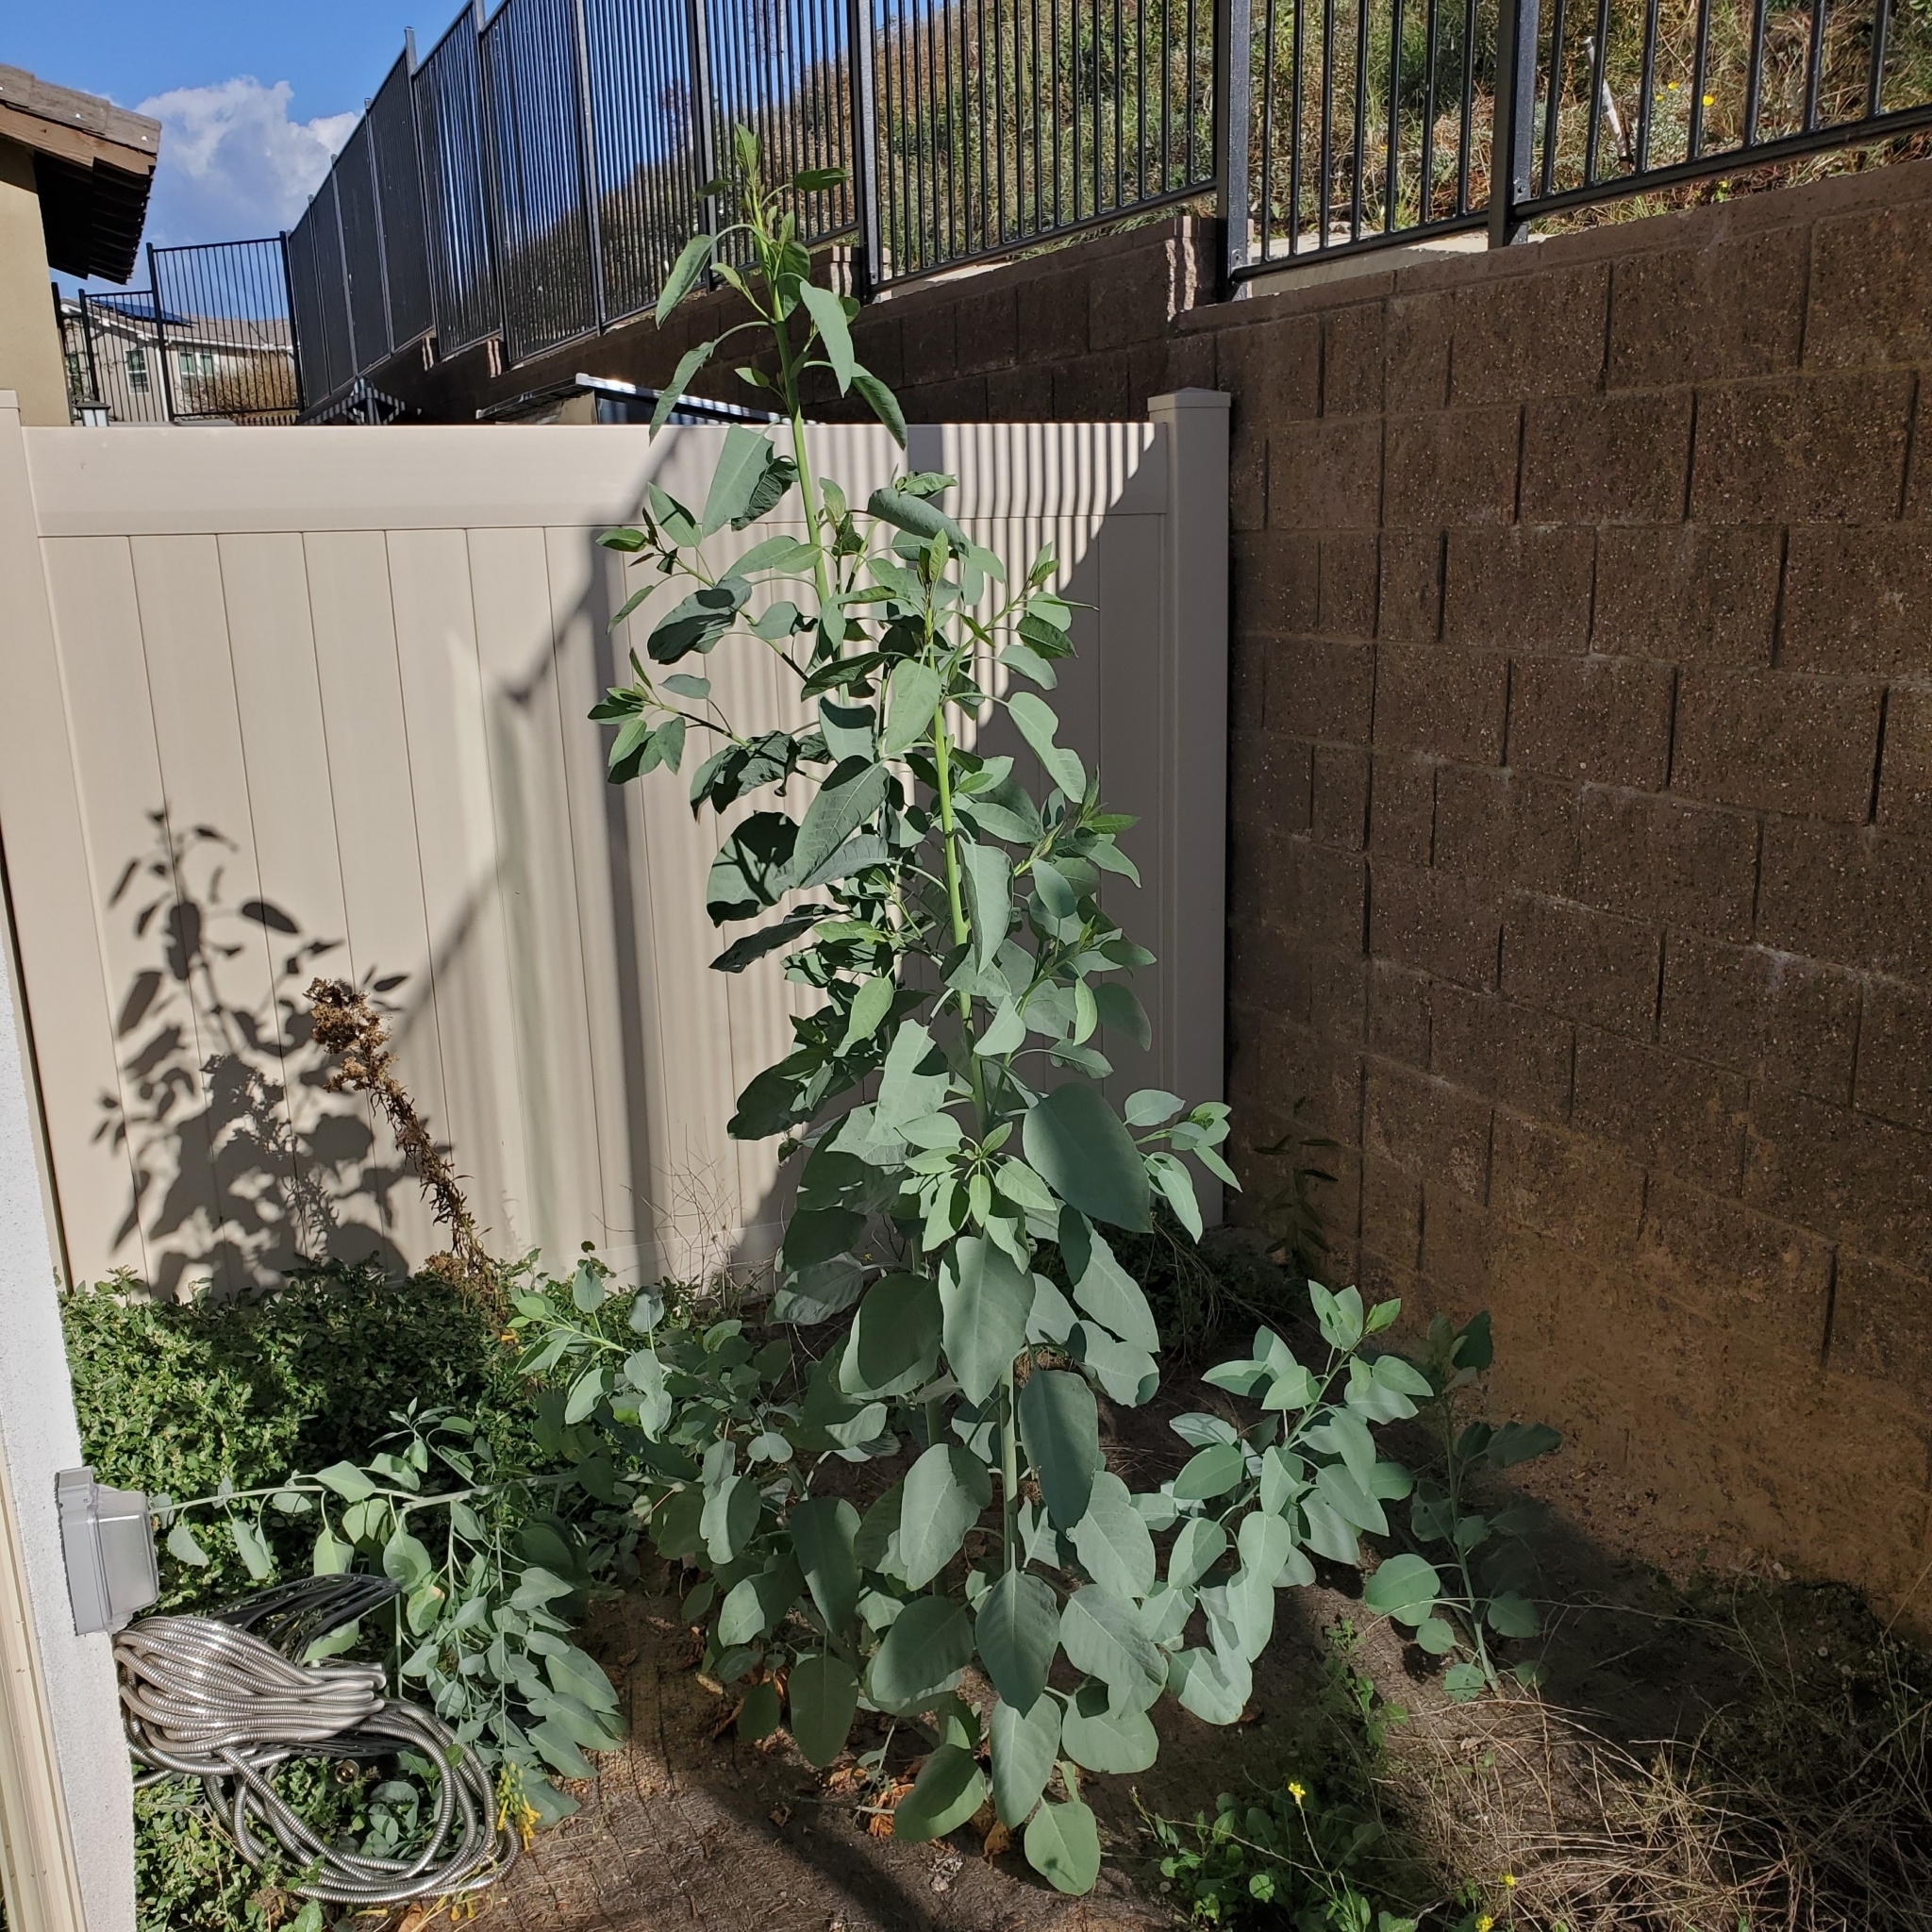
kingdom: Plantae
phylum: Tracheophyta
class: Magnoliopsida
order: Solanales
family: Solanaceae
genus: Nicotiana
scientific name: Nicotiana glauca
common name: Tree tobacco
